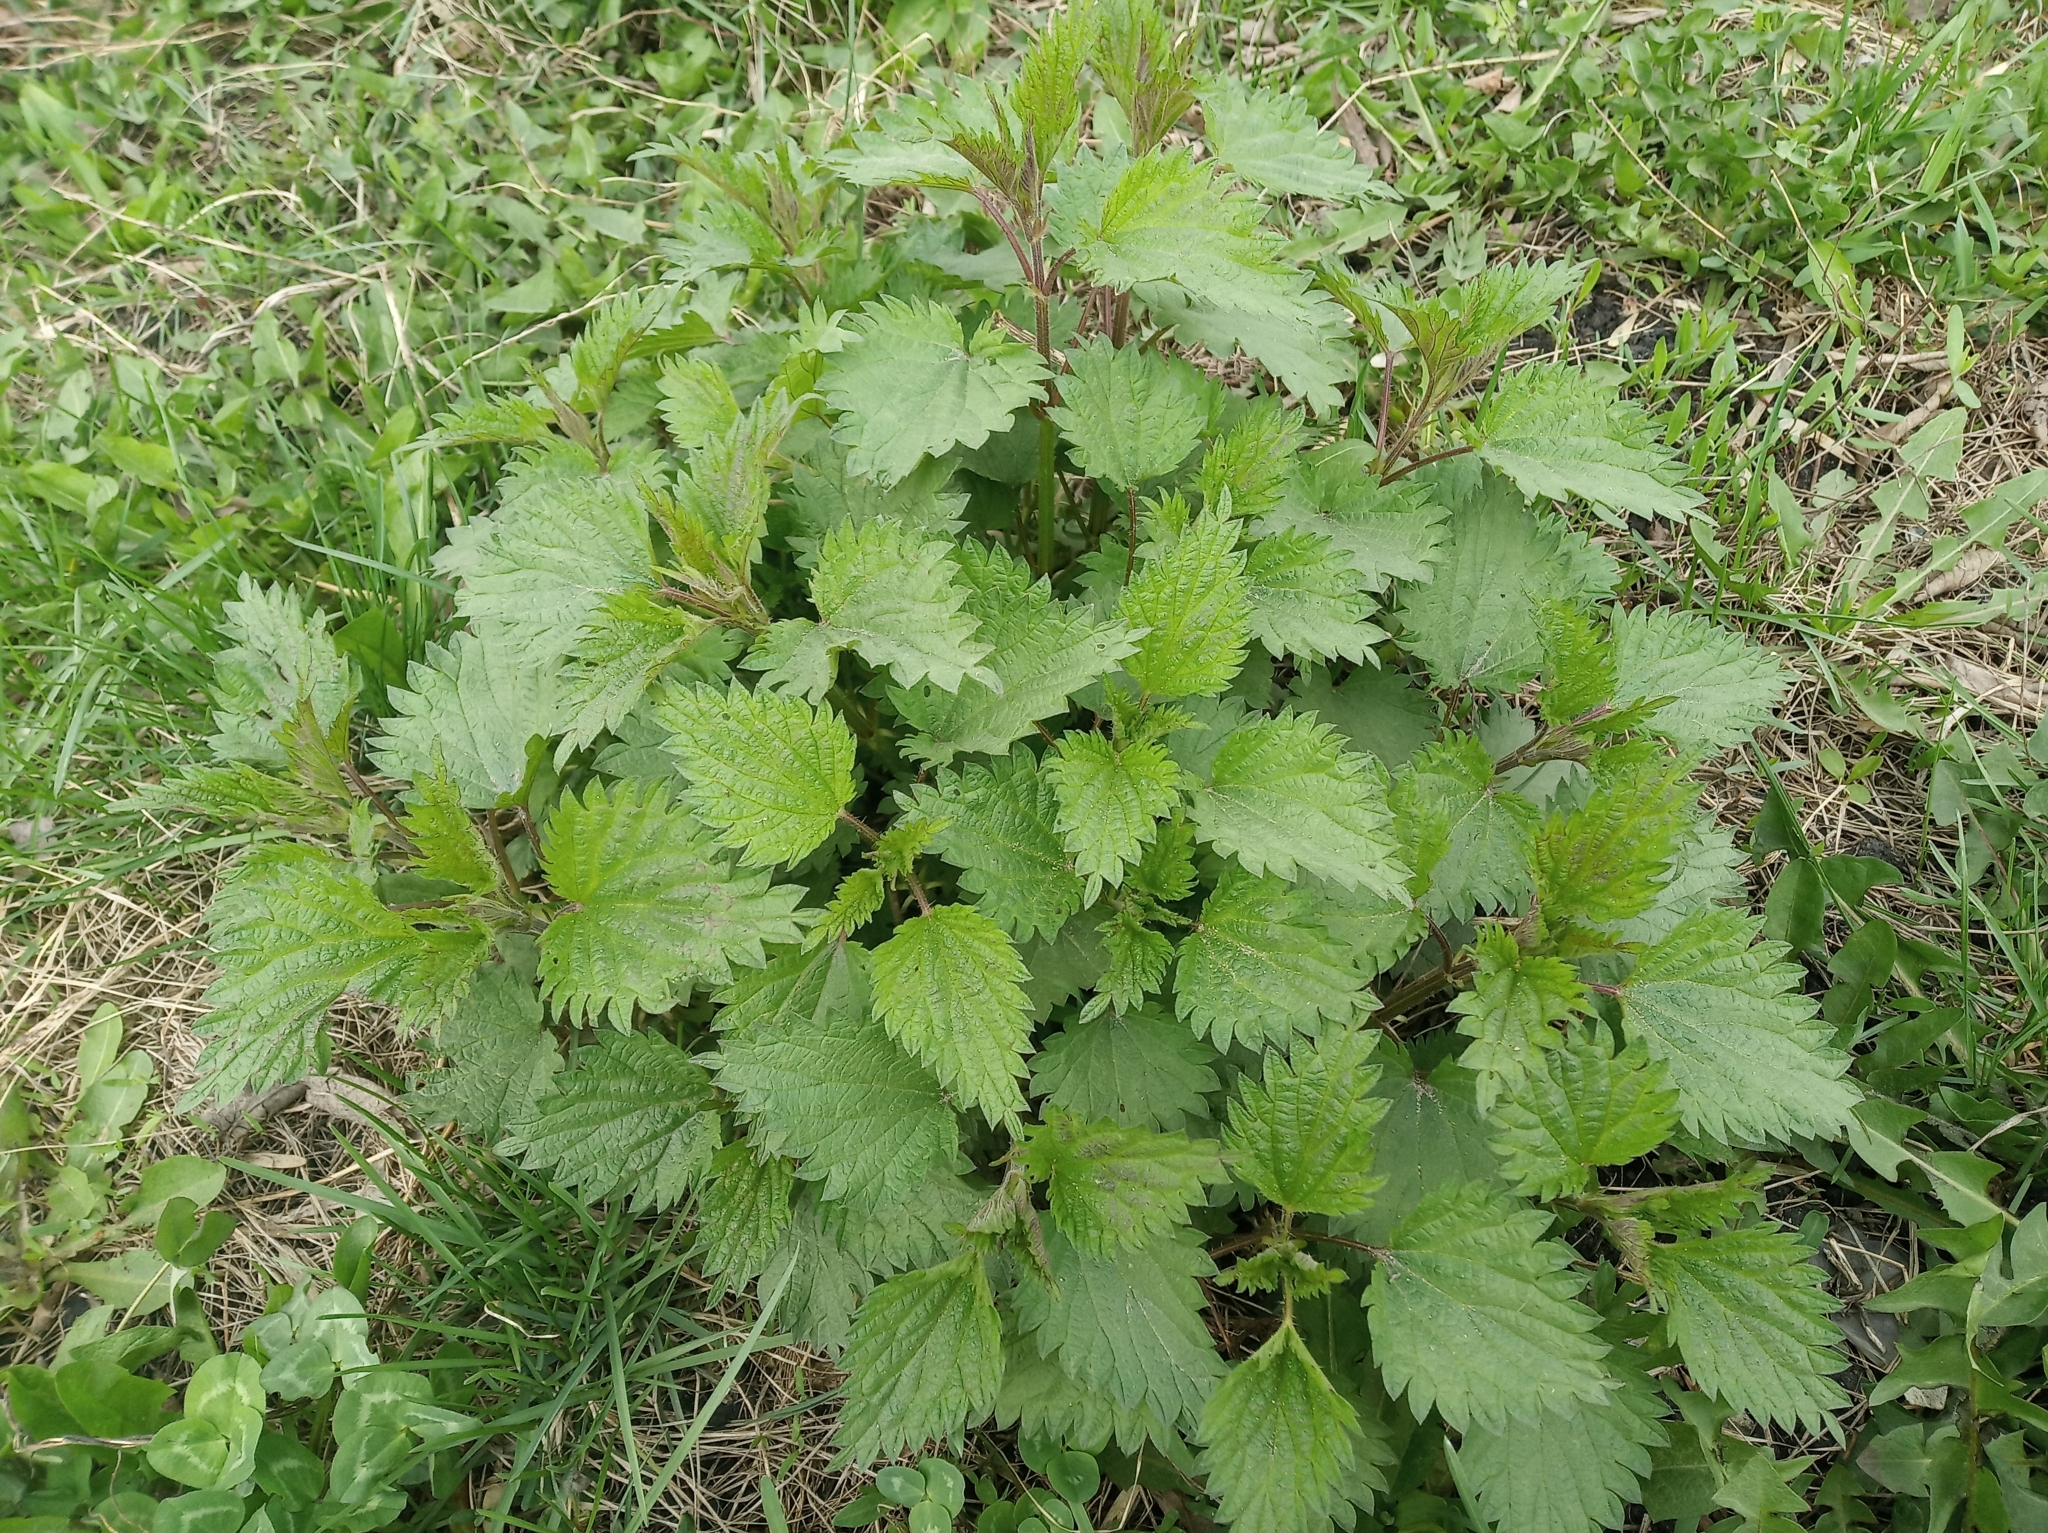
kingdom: Plantae
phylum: Tracheophyta
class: Magnoliopsida
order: Rosales
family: Urticaceae
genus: Urtica
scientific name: Urtica dioica
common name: Common nettle
